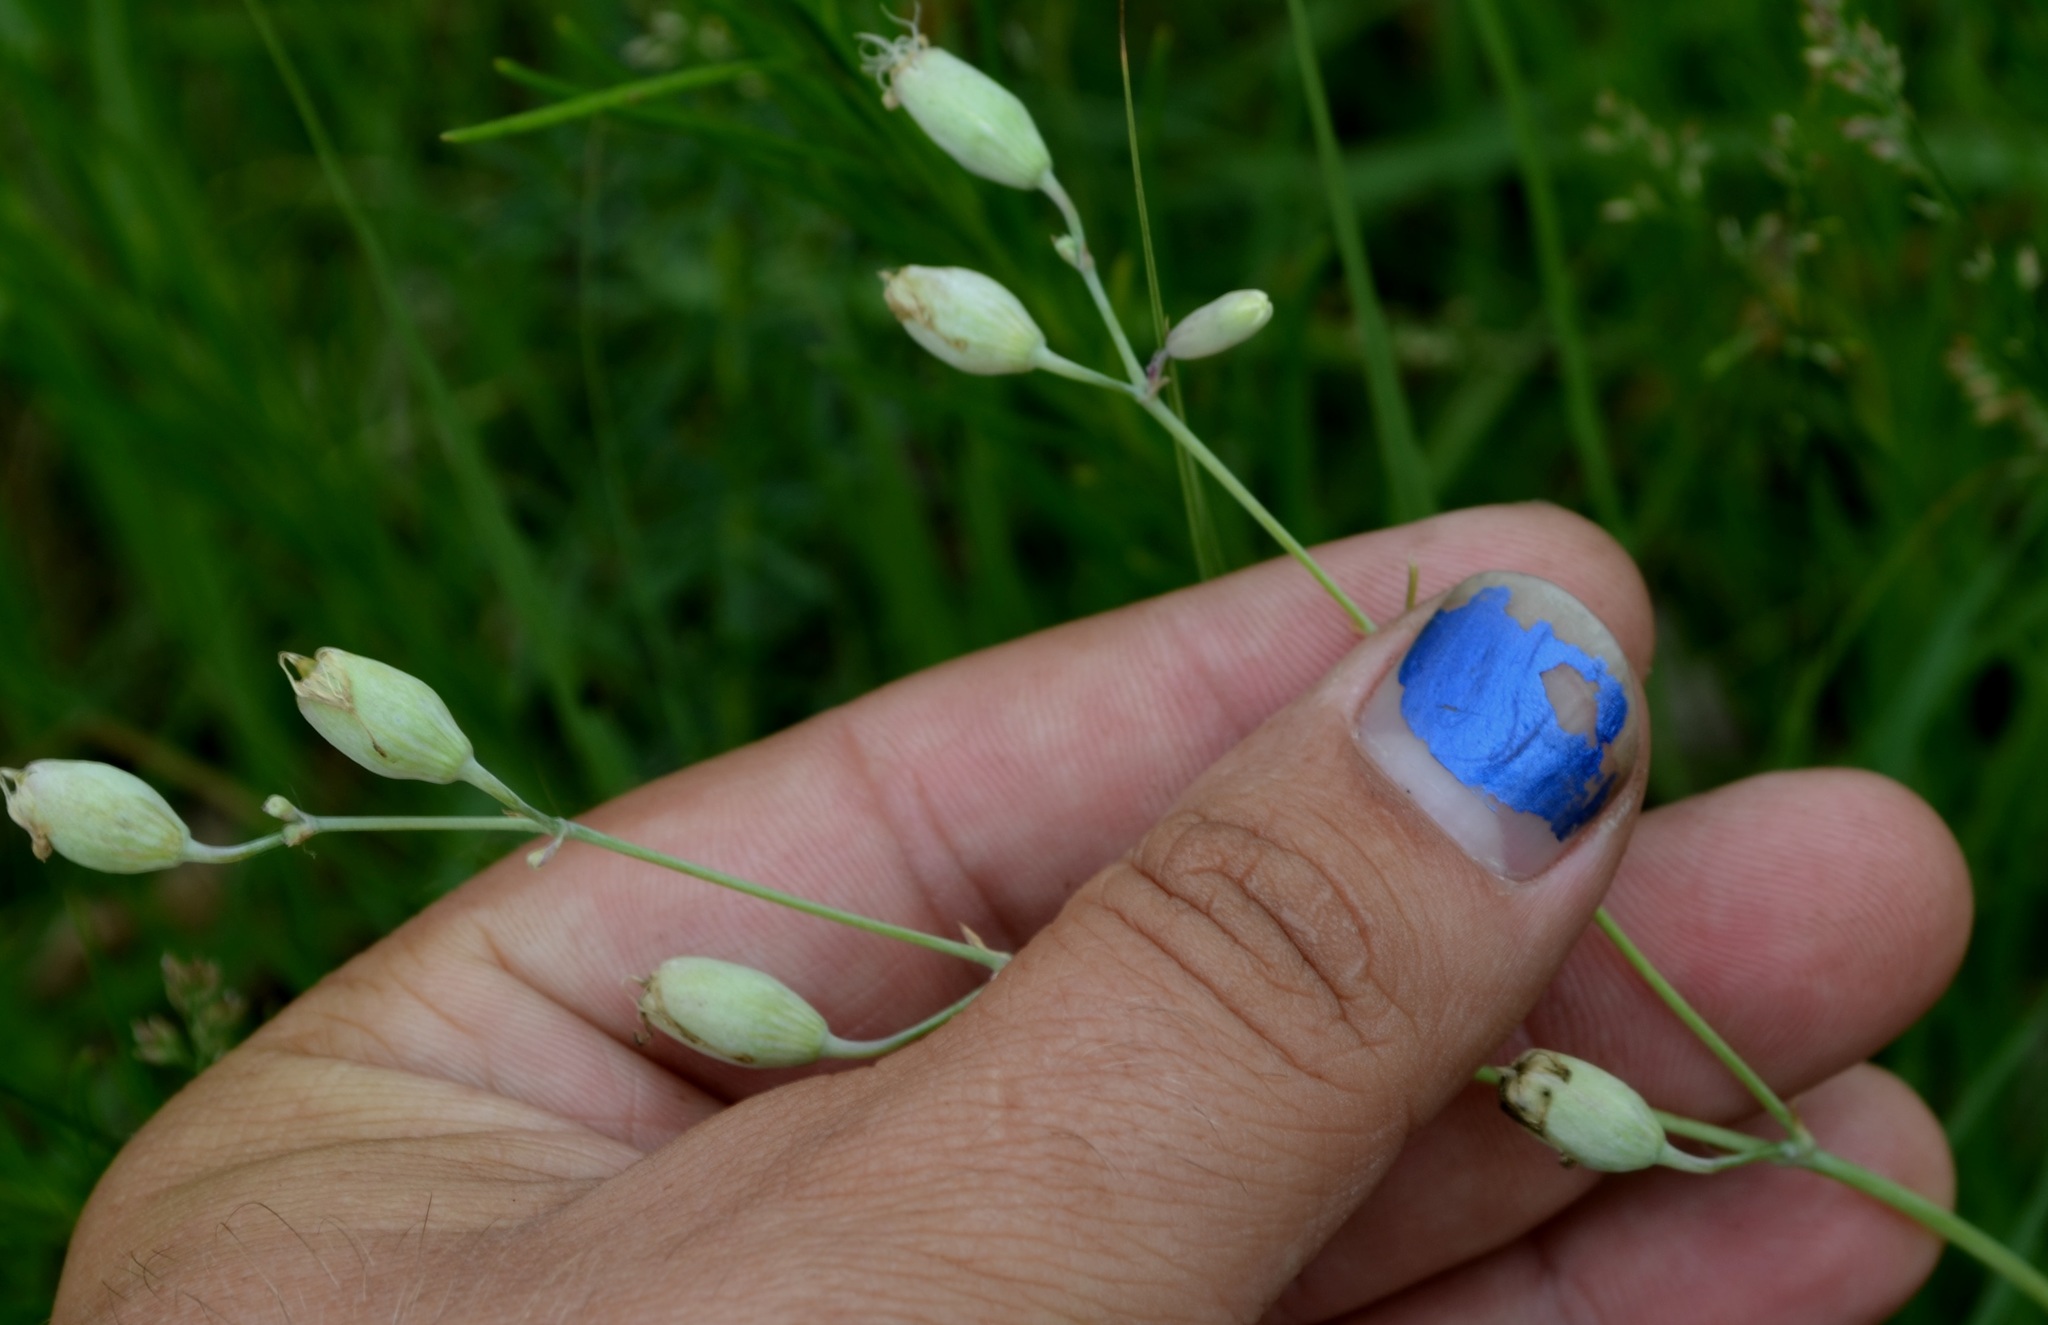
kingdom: Plantae
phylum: Tracheophyta
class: Magnoliopsida
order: Caryophyllales
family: Caryophyllaceae
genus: Silene
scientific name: Silene csereii
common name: Balkan catchfly
